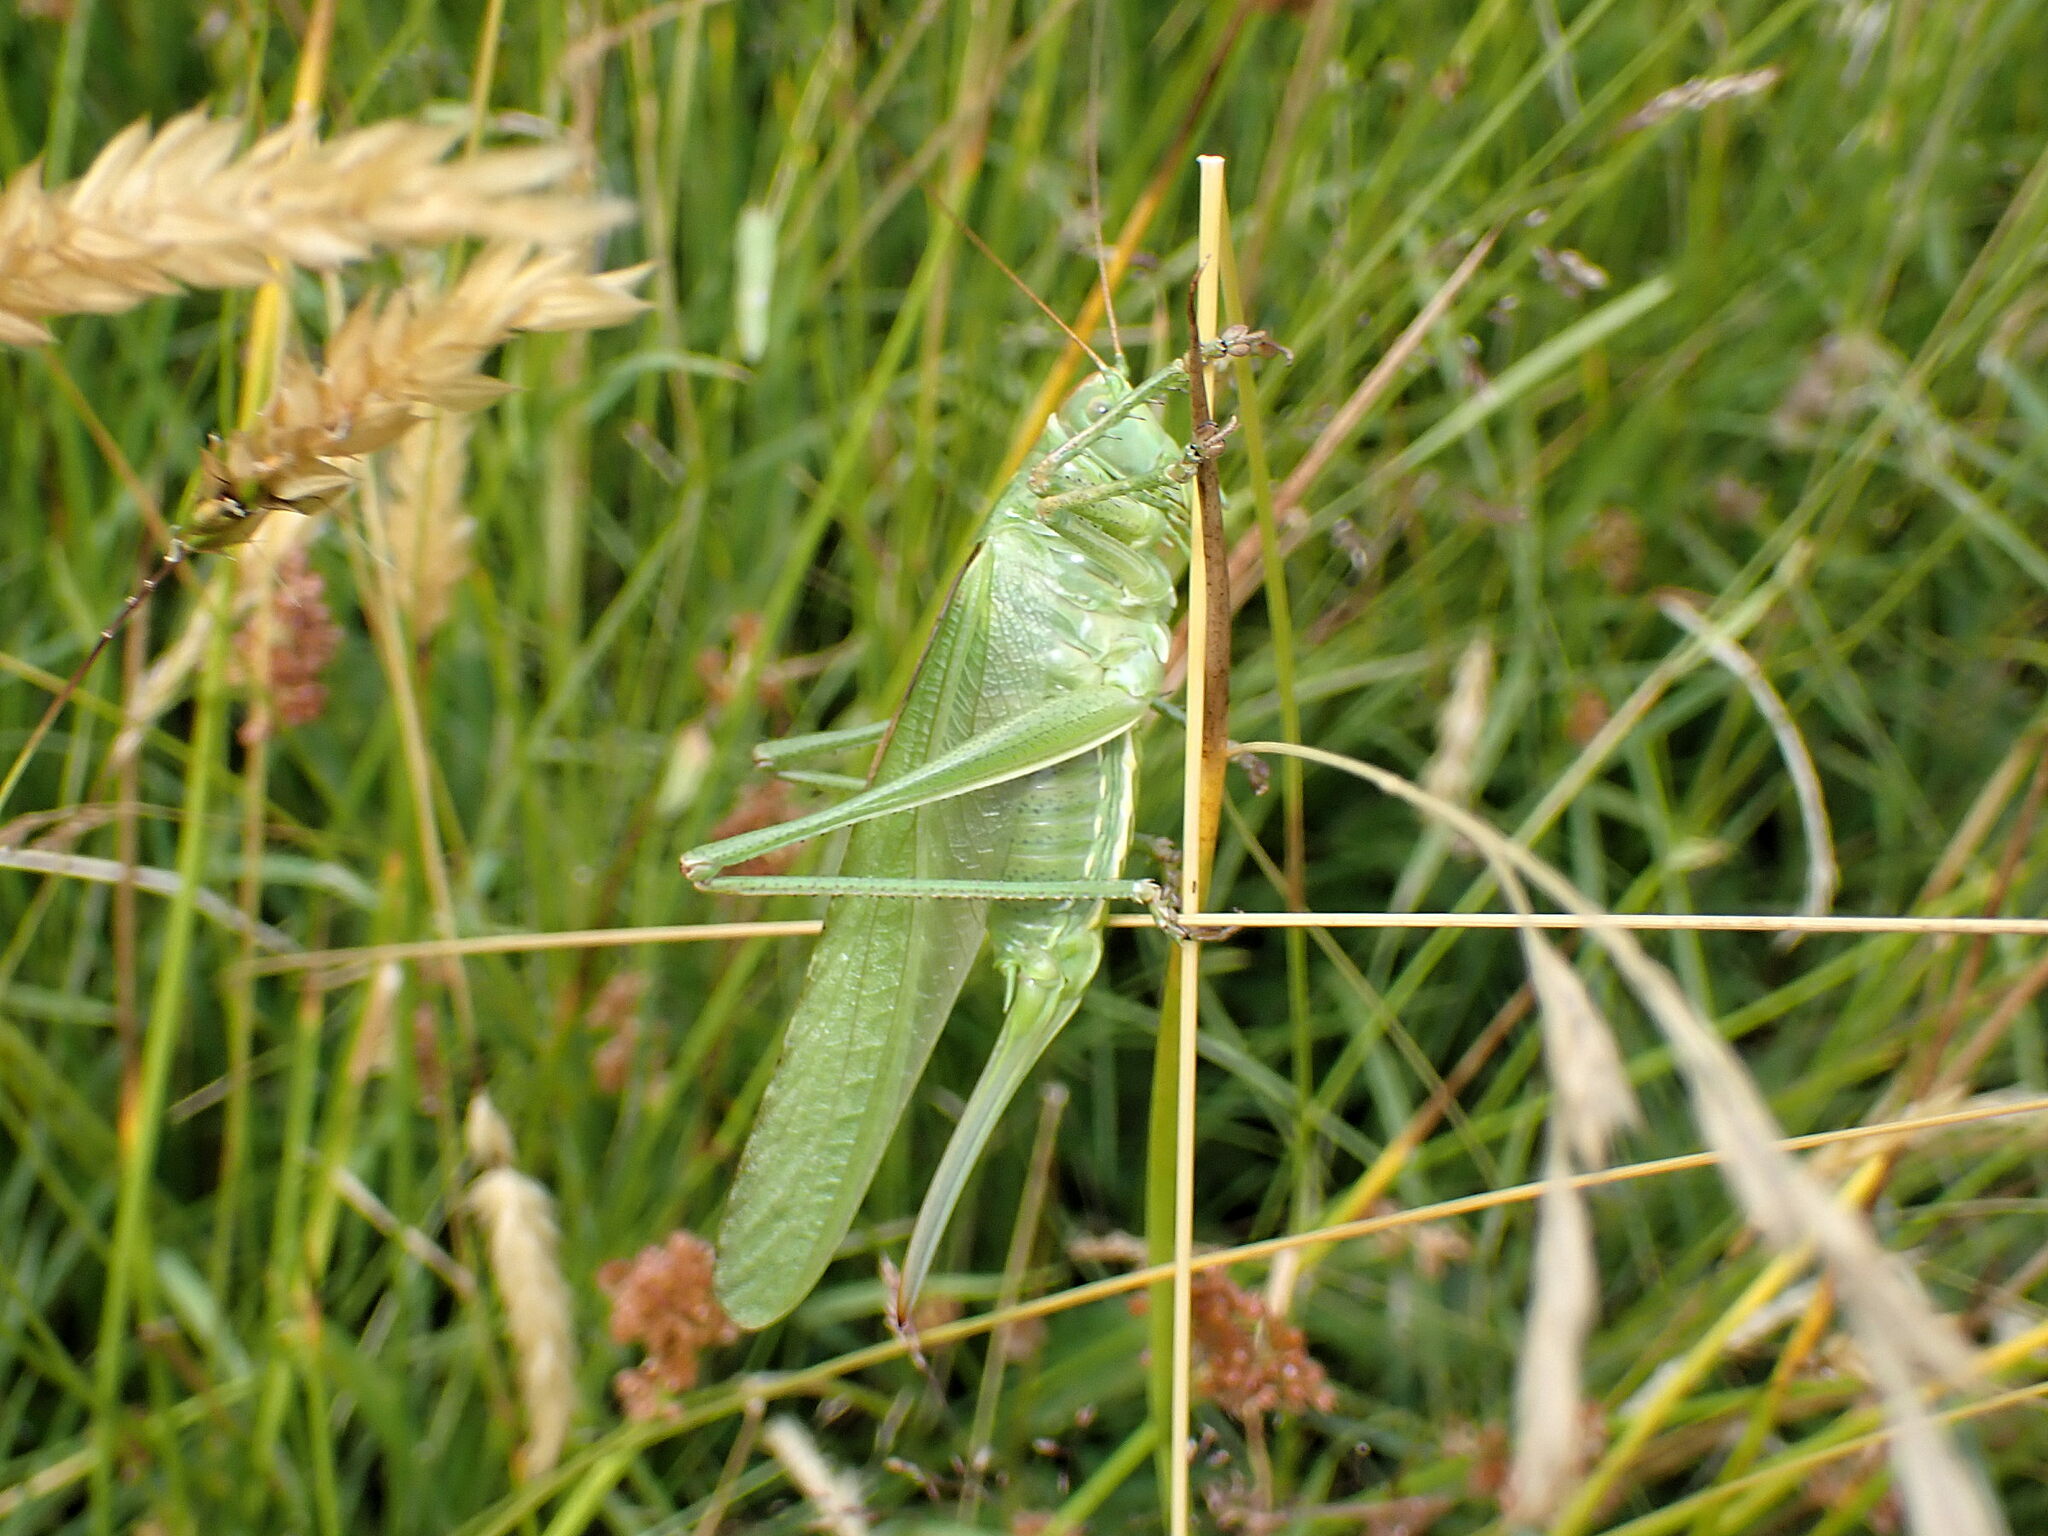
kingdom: Animalia
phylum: Arthropoda
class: Insecta
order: Orthoptera
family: Tettigoniidae
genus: Tettigonia
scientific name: Tettigonia viridissima
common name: Great green bush-cricket
